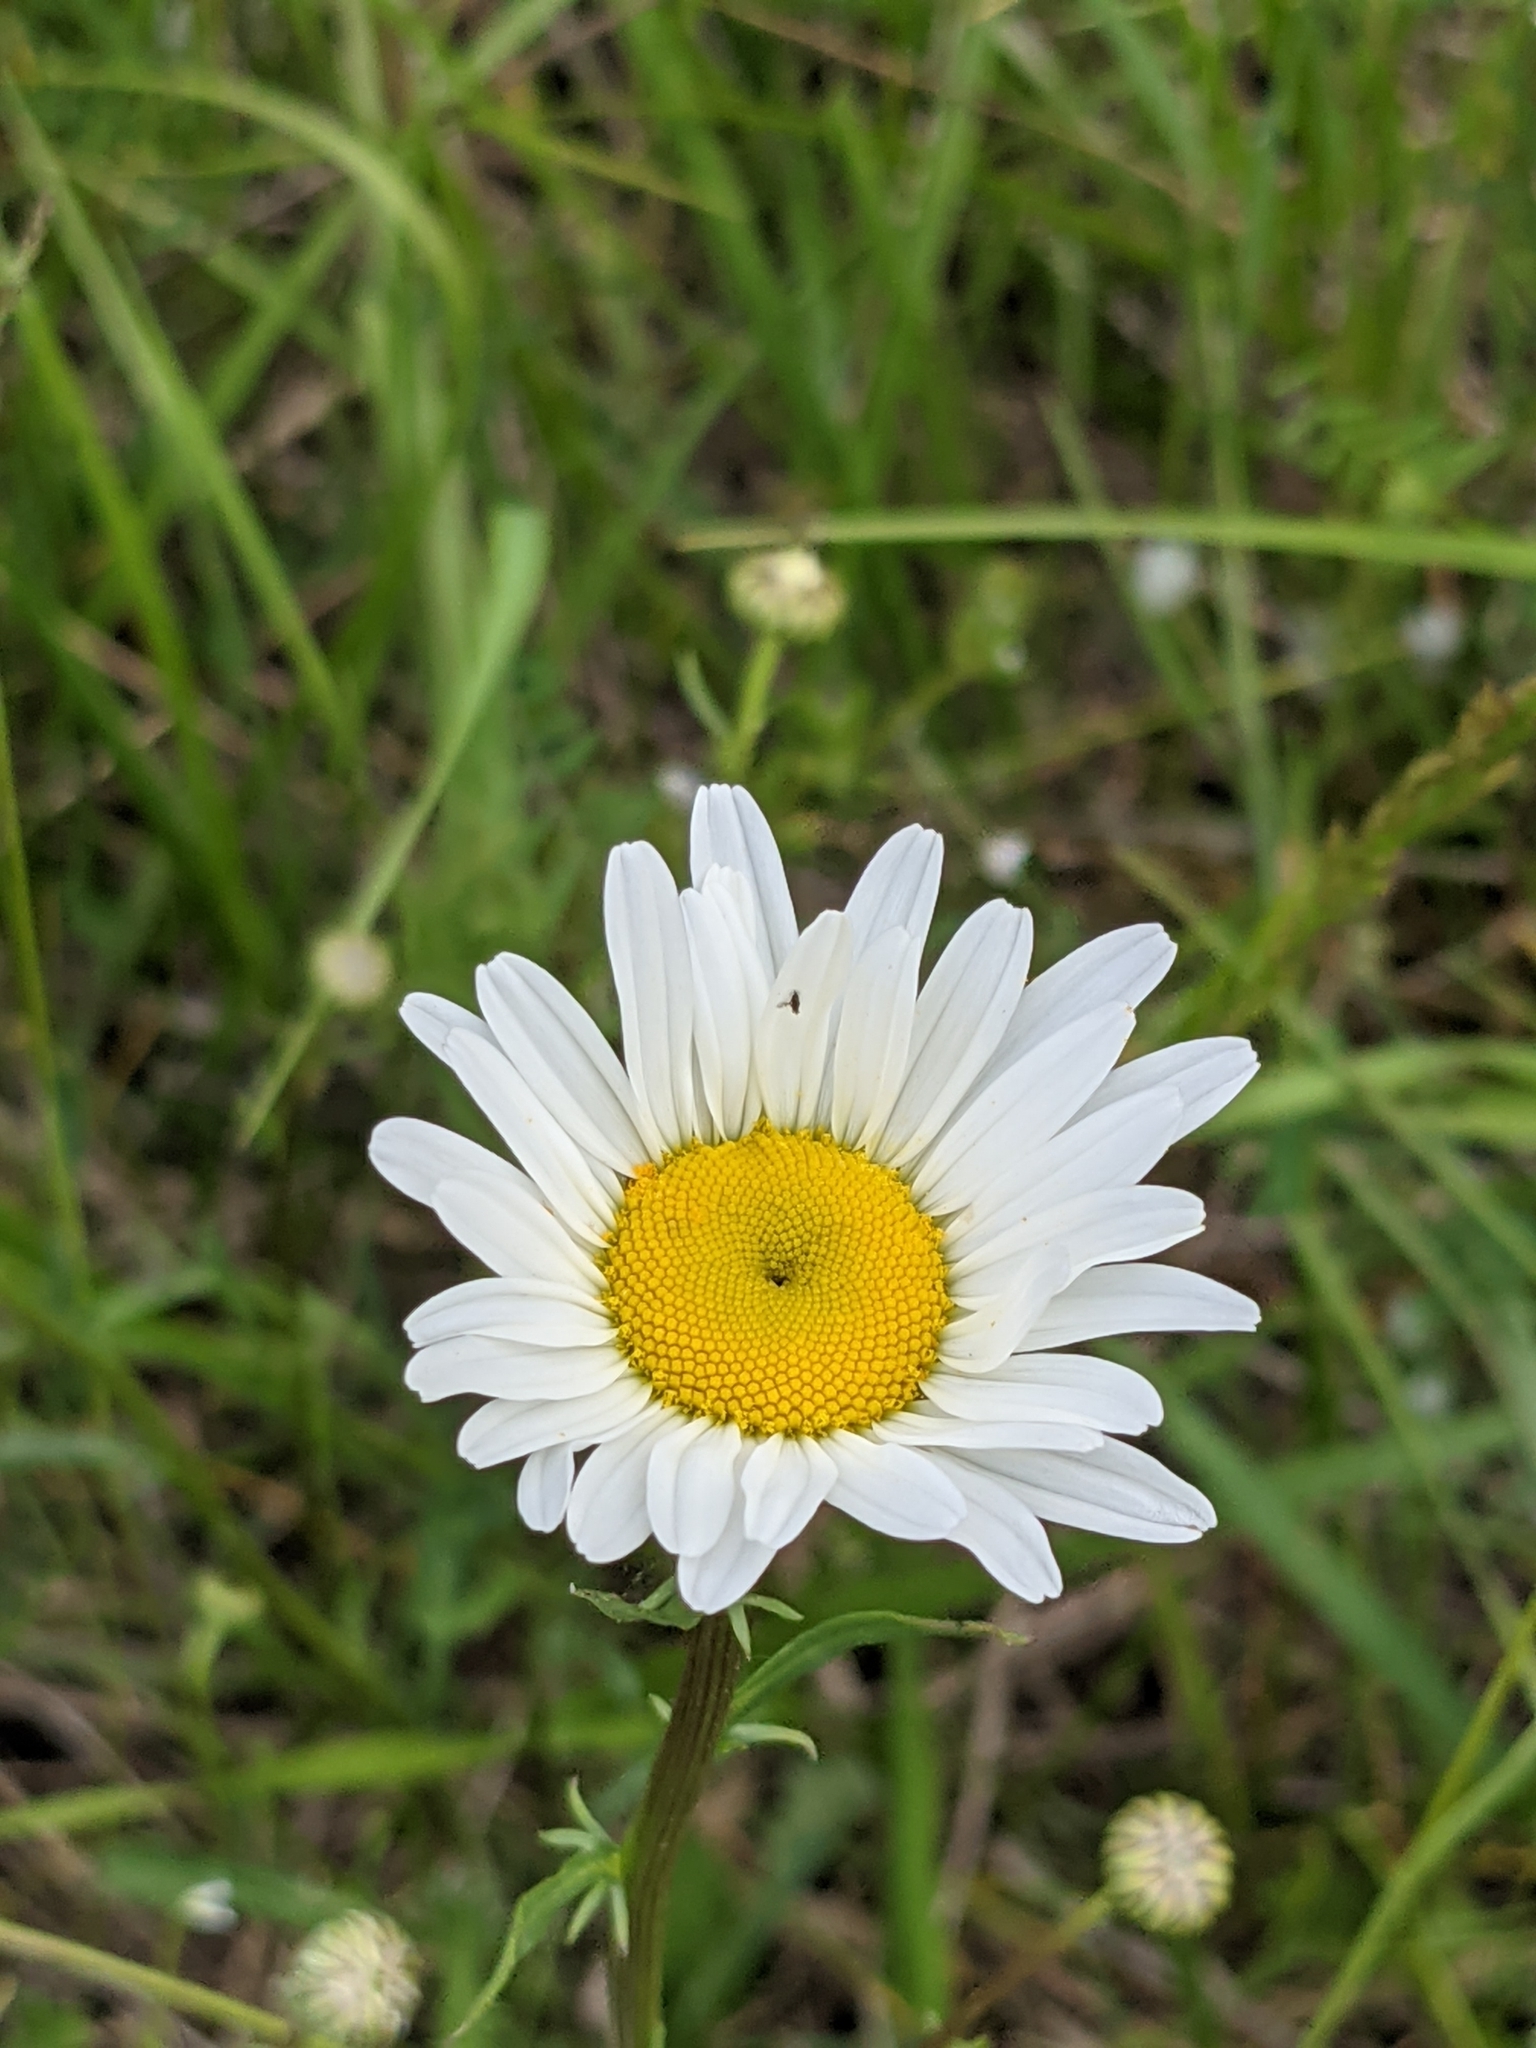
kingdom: Plantae
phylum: Tracheophyta
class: Magnoliopsida
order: Asterales
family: Asteraceae
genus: Leucanthemum
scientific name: Leucanthemum vulgare
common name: Oxeye daisy
